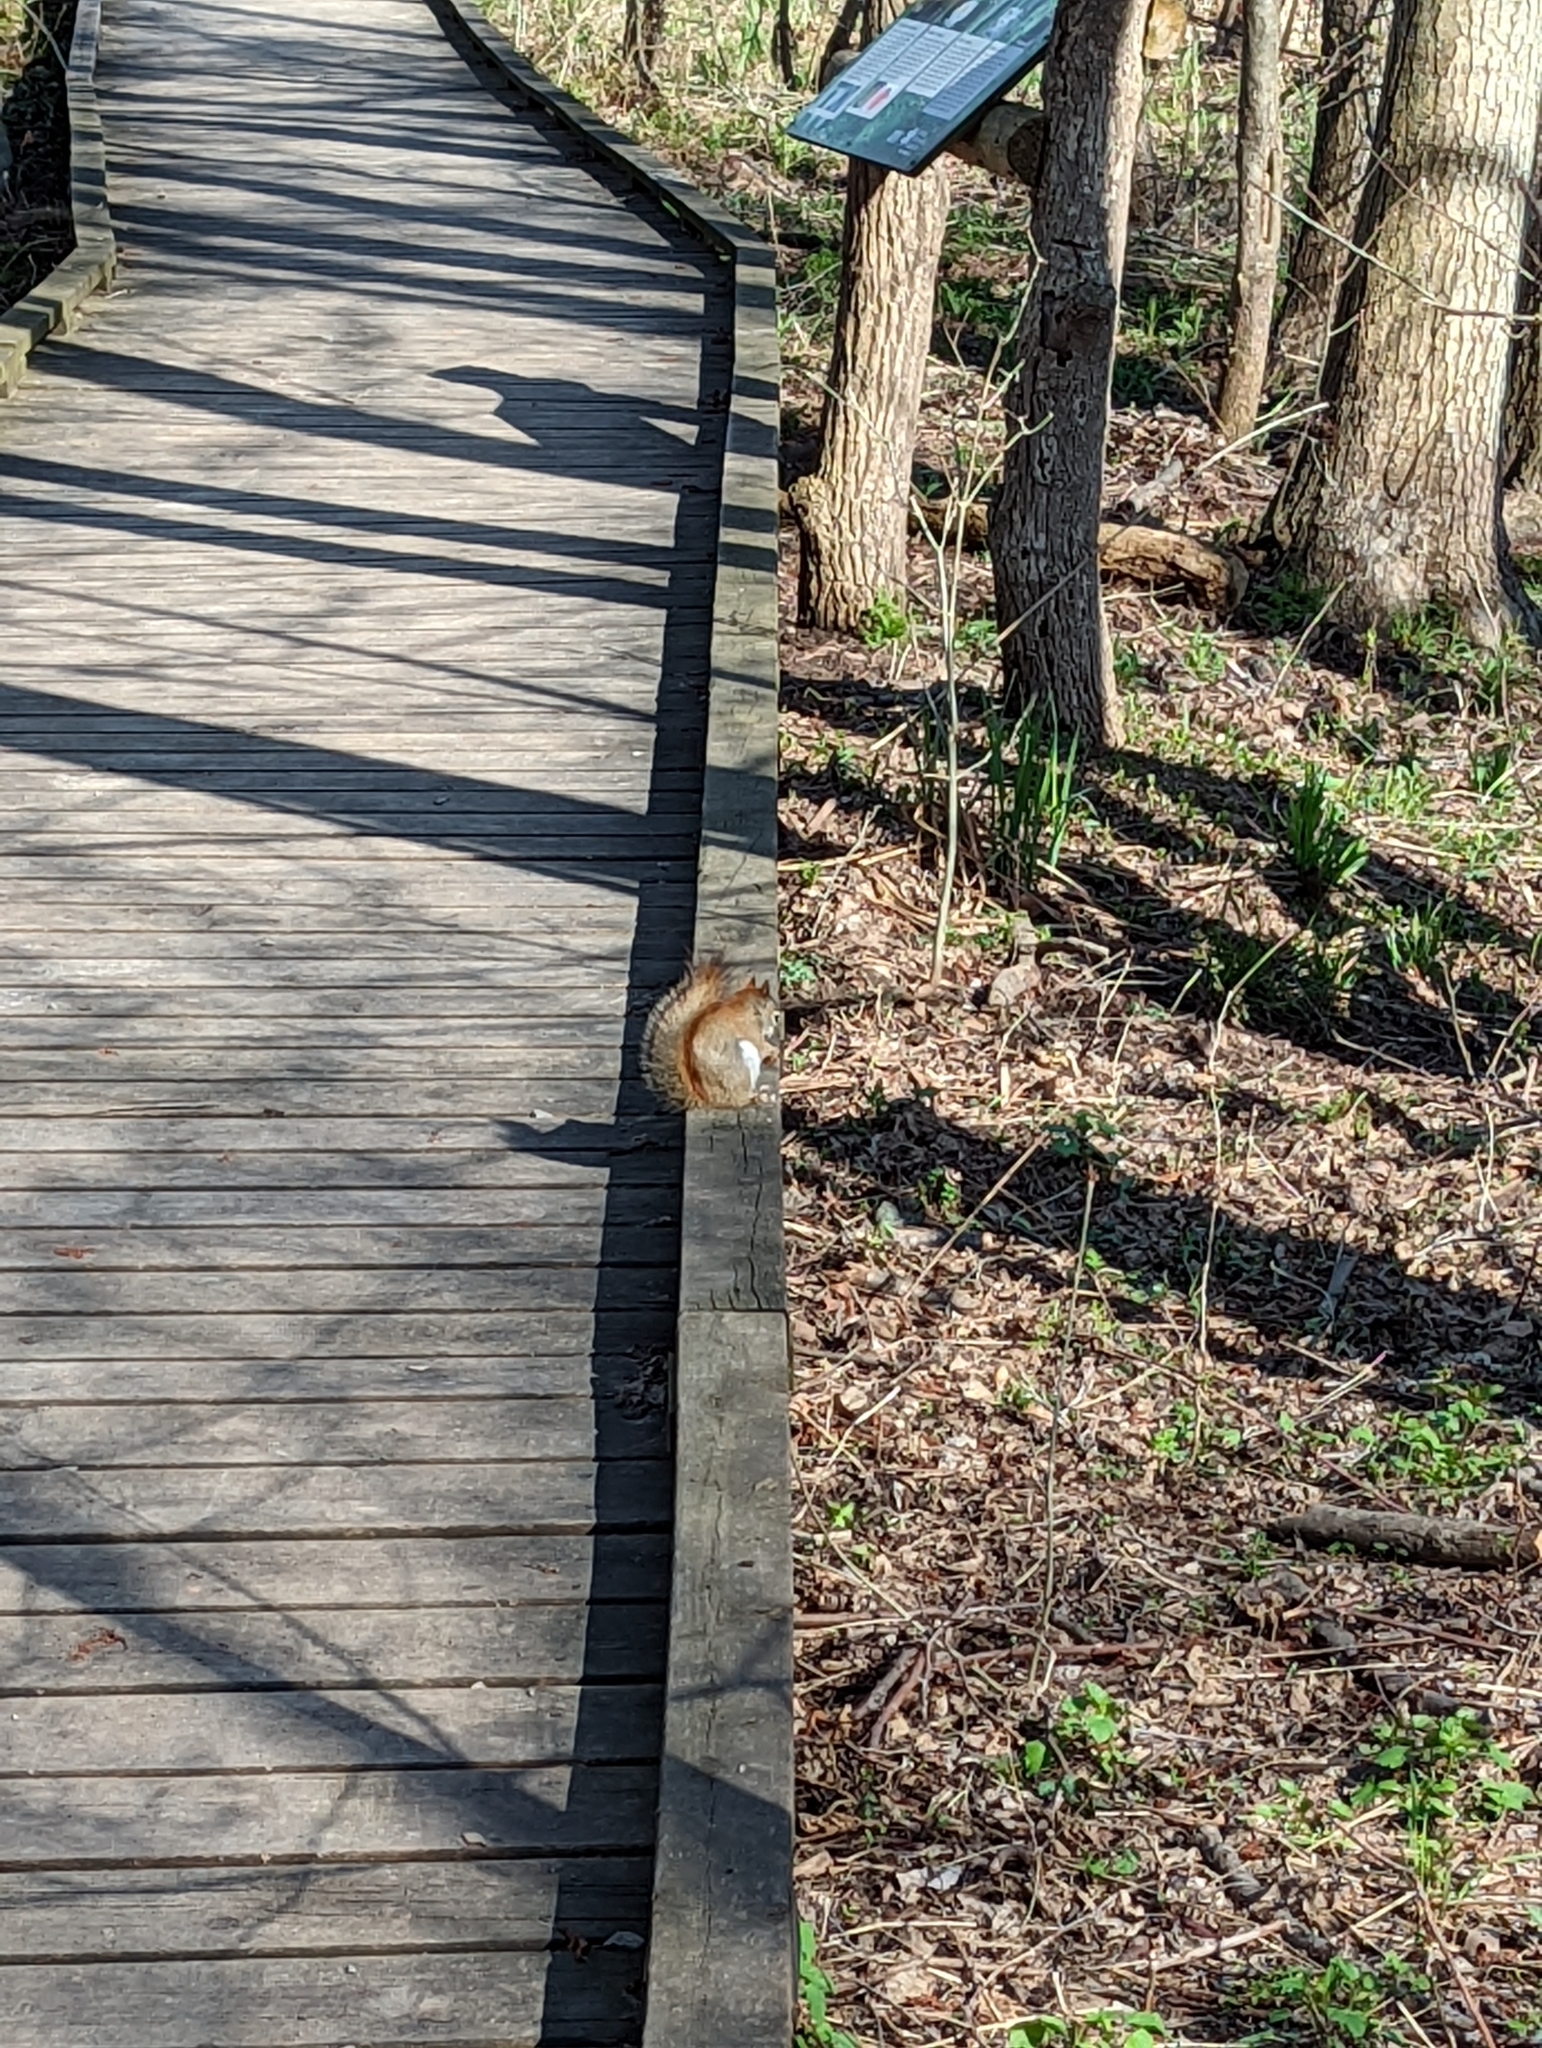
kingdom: Animalia
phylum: Chordata
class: Mammalia
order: Rodentia
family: Sciuridae
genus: Tamiasciurus
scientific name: Tamiasciurus hudsonicus
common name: Red squirrel
